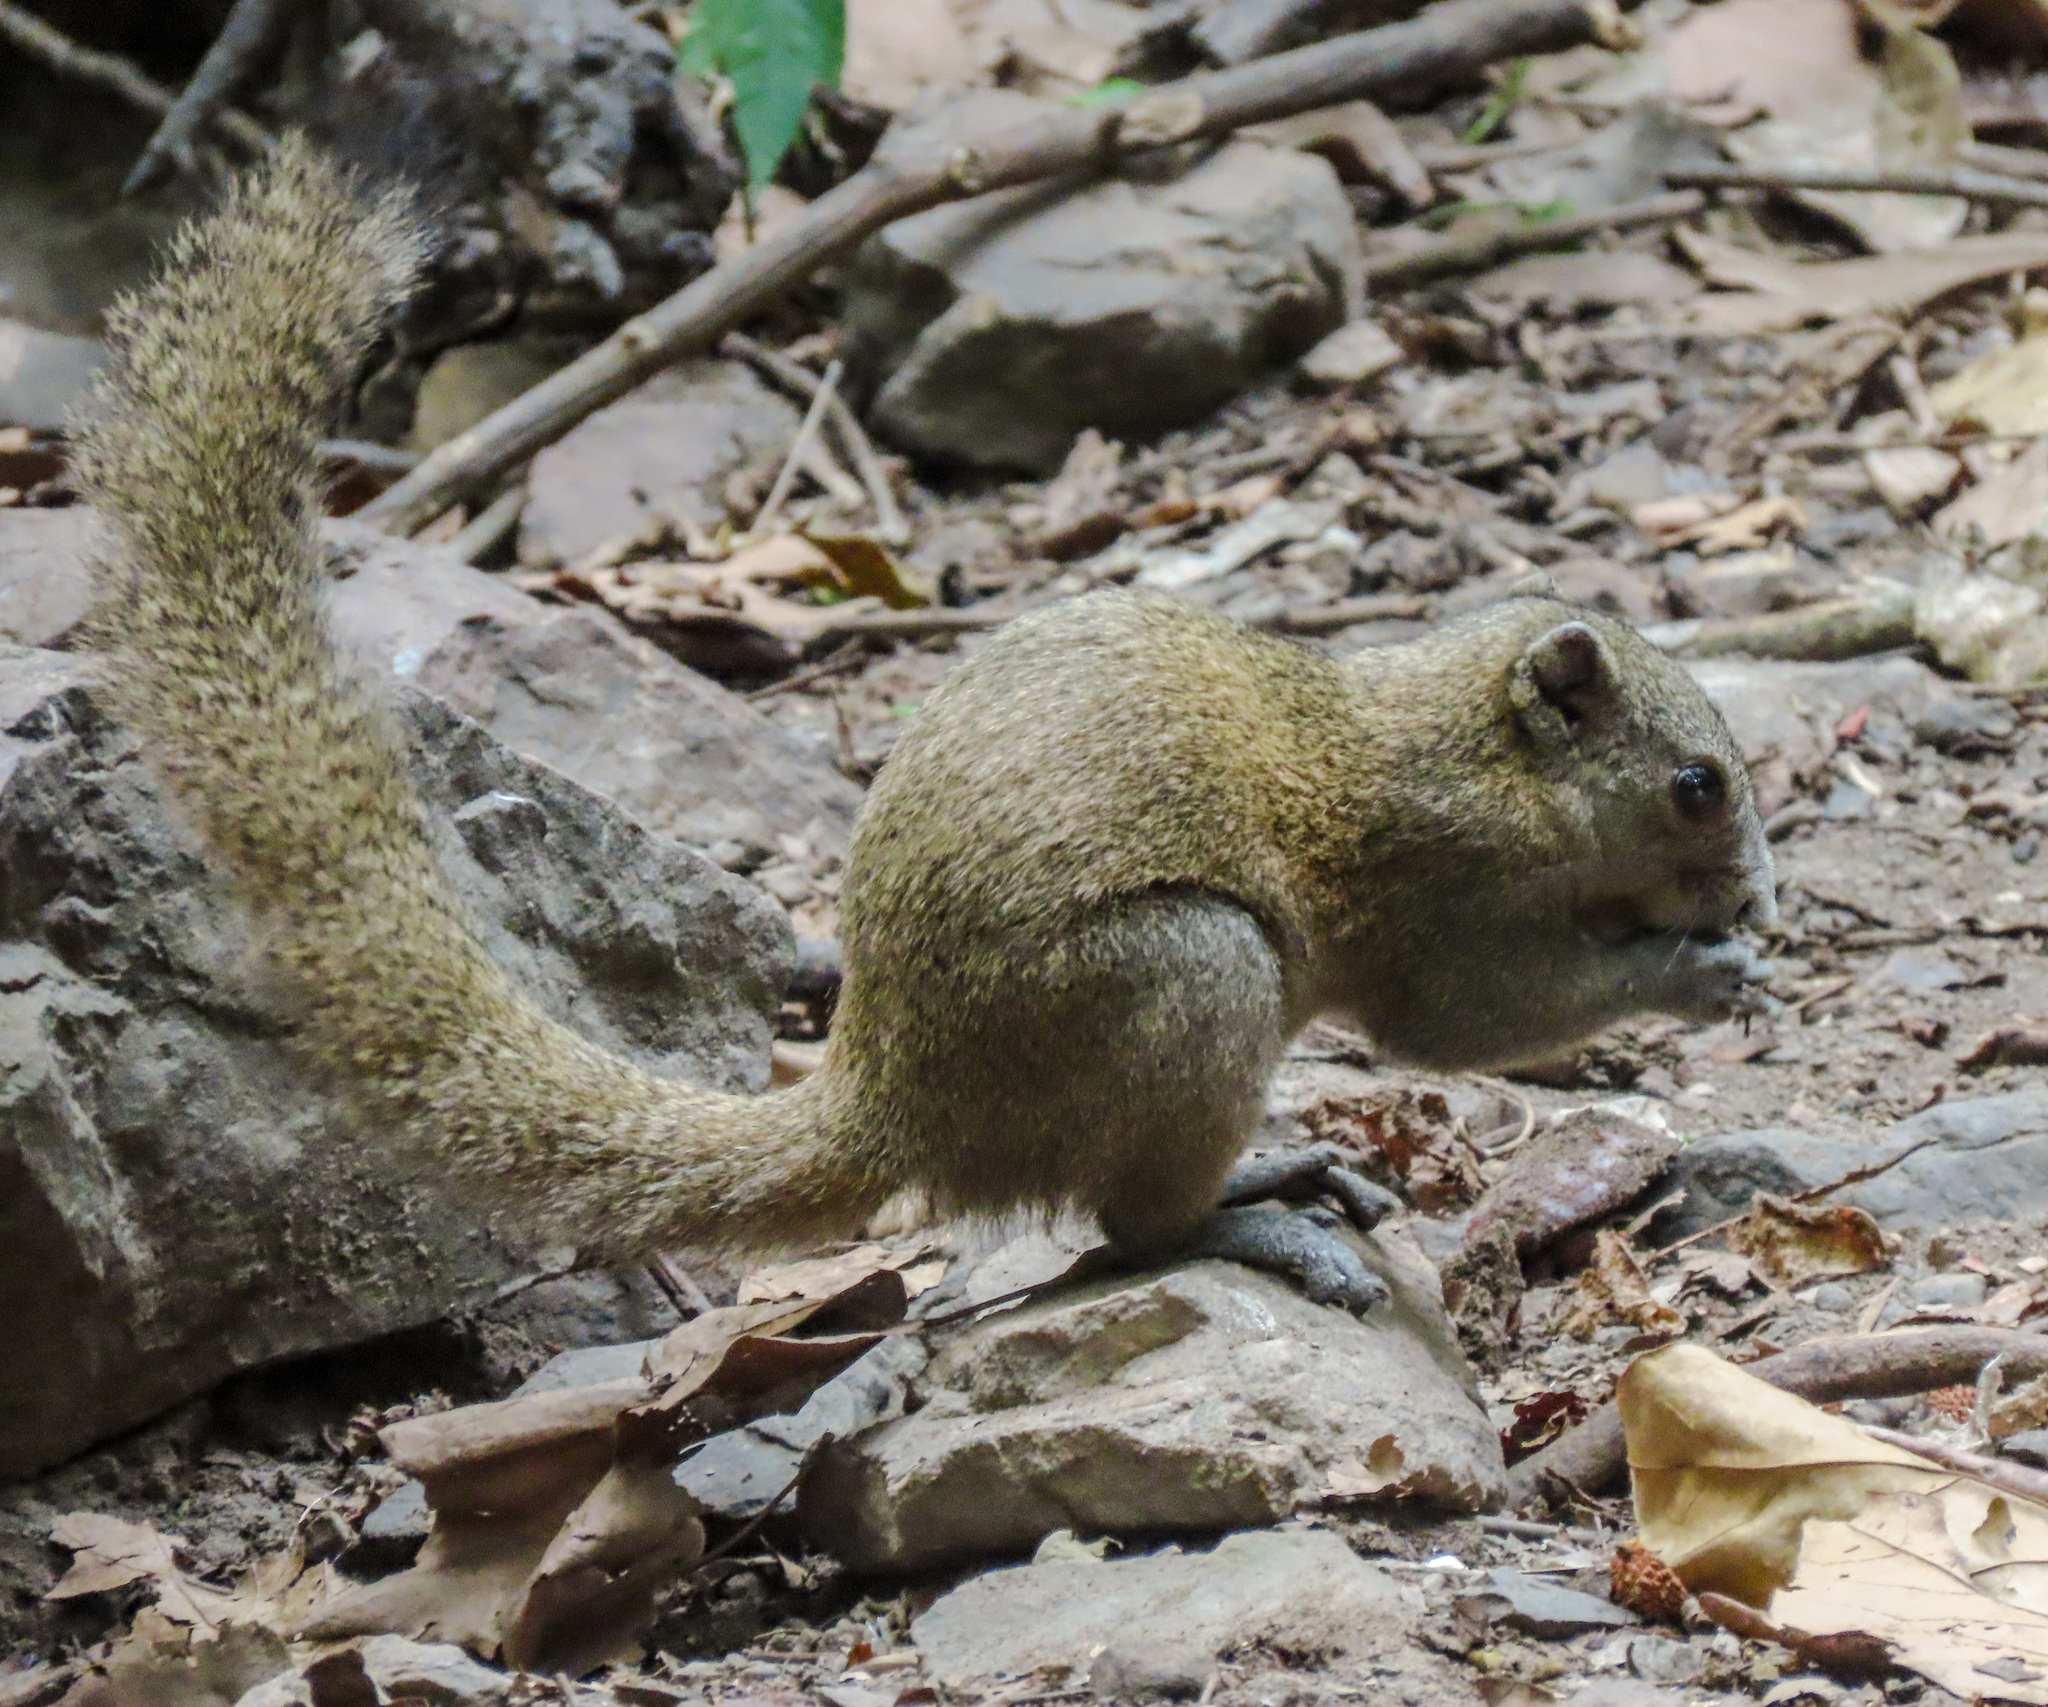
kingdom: Animalia
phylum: Chordata
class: Mammalia
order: Rodentia
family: Sciuridae
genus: Callosciurus
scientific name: Callosciurus caniceps
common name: Gray-bellied squirrel
